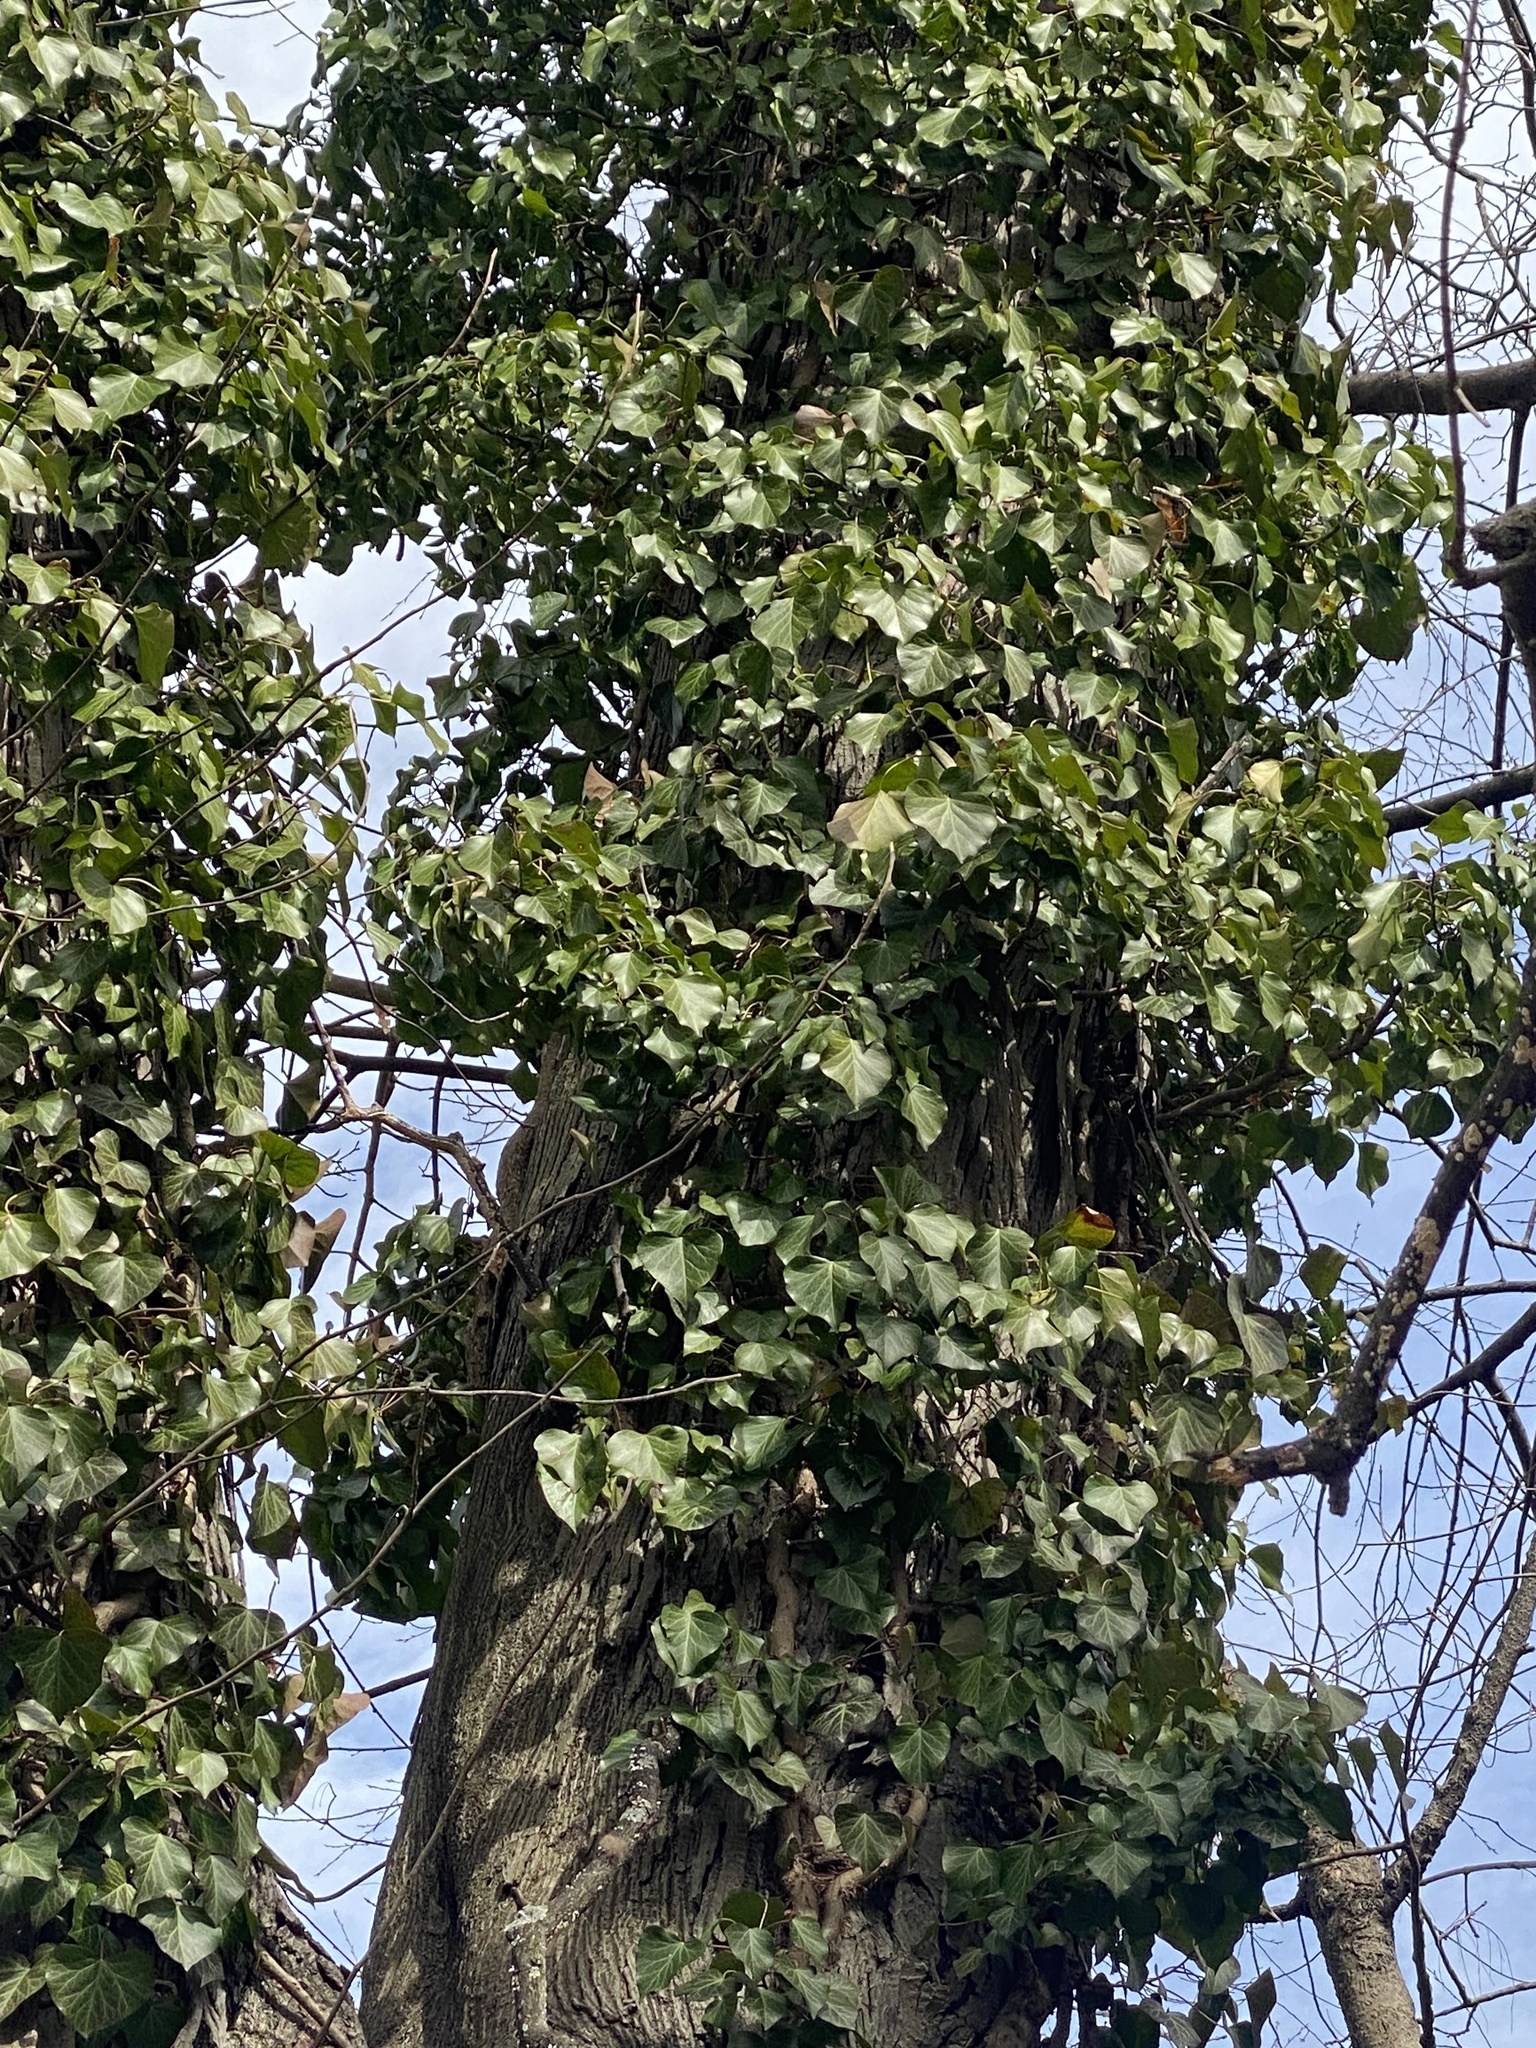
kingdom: Plantae
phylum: Tracheophyta
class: Magnoliopsida
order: Apiales
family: Araliaceae
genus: Hedera
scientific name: Hedera
